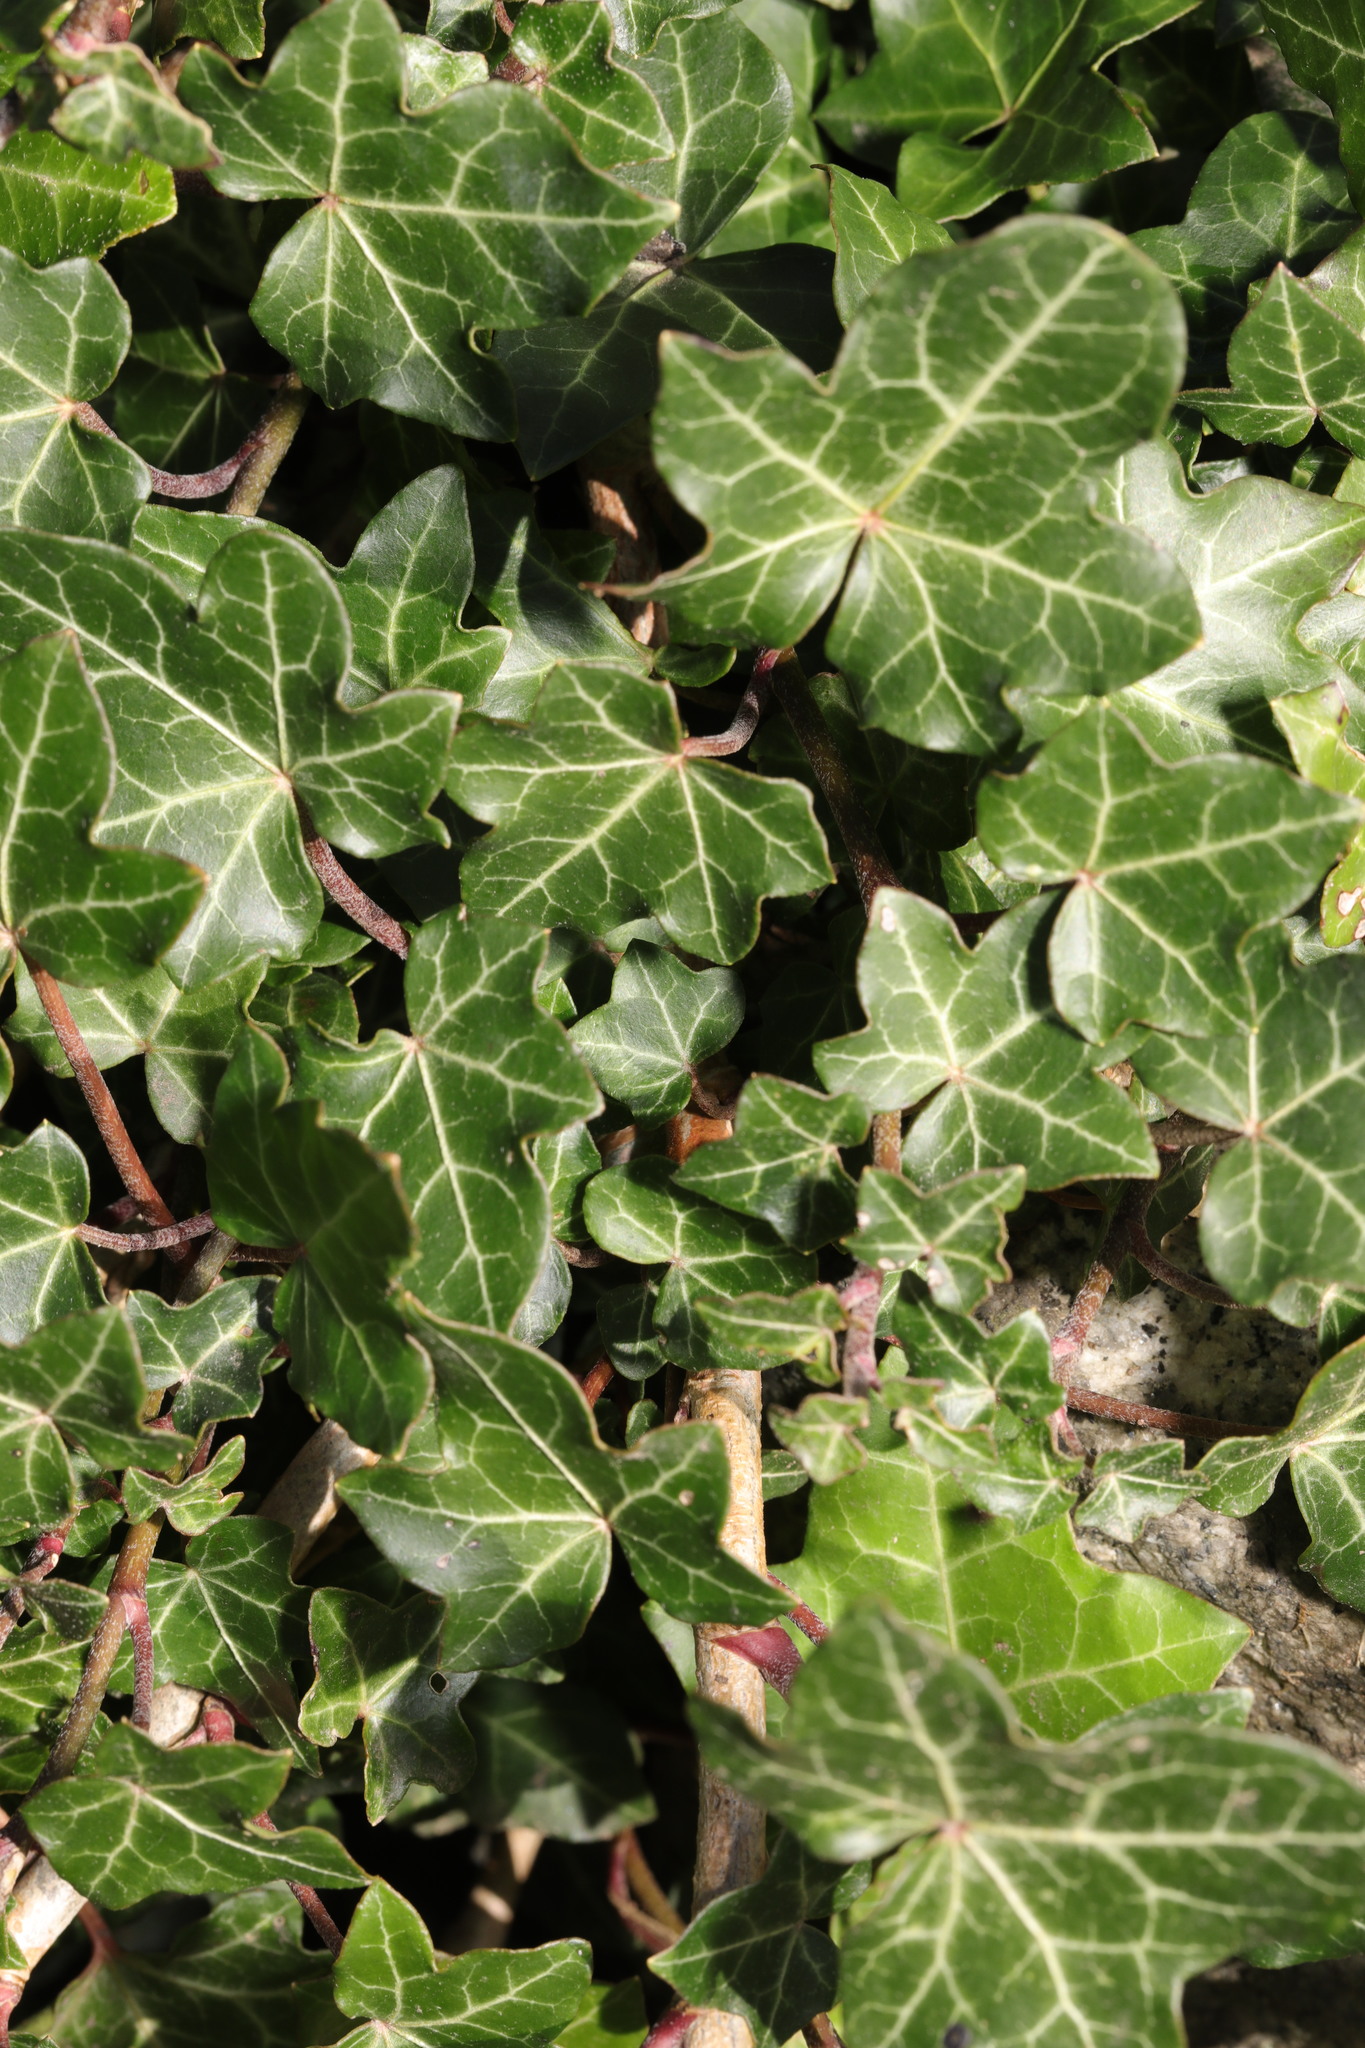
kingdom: Plantae
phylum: Tracheophyta
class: Magnoliopsida
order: Apiales
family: Araliaceae
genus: Hedera
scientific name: Hedera helix
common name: Ivy
